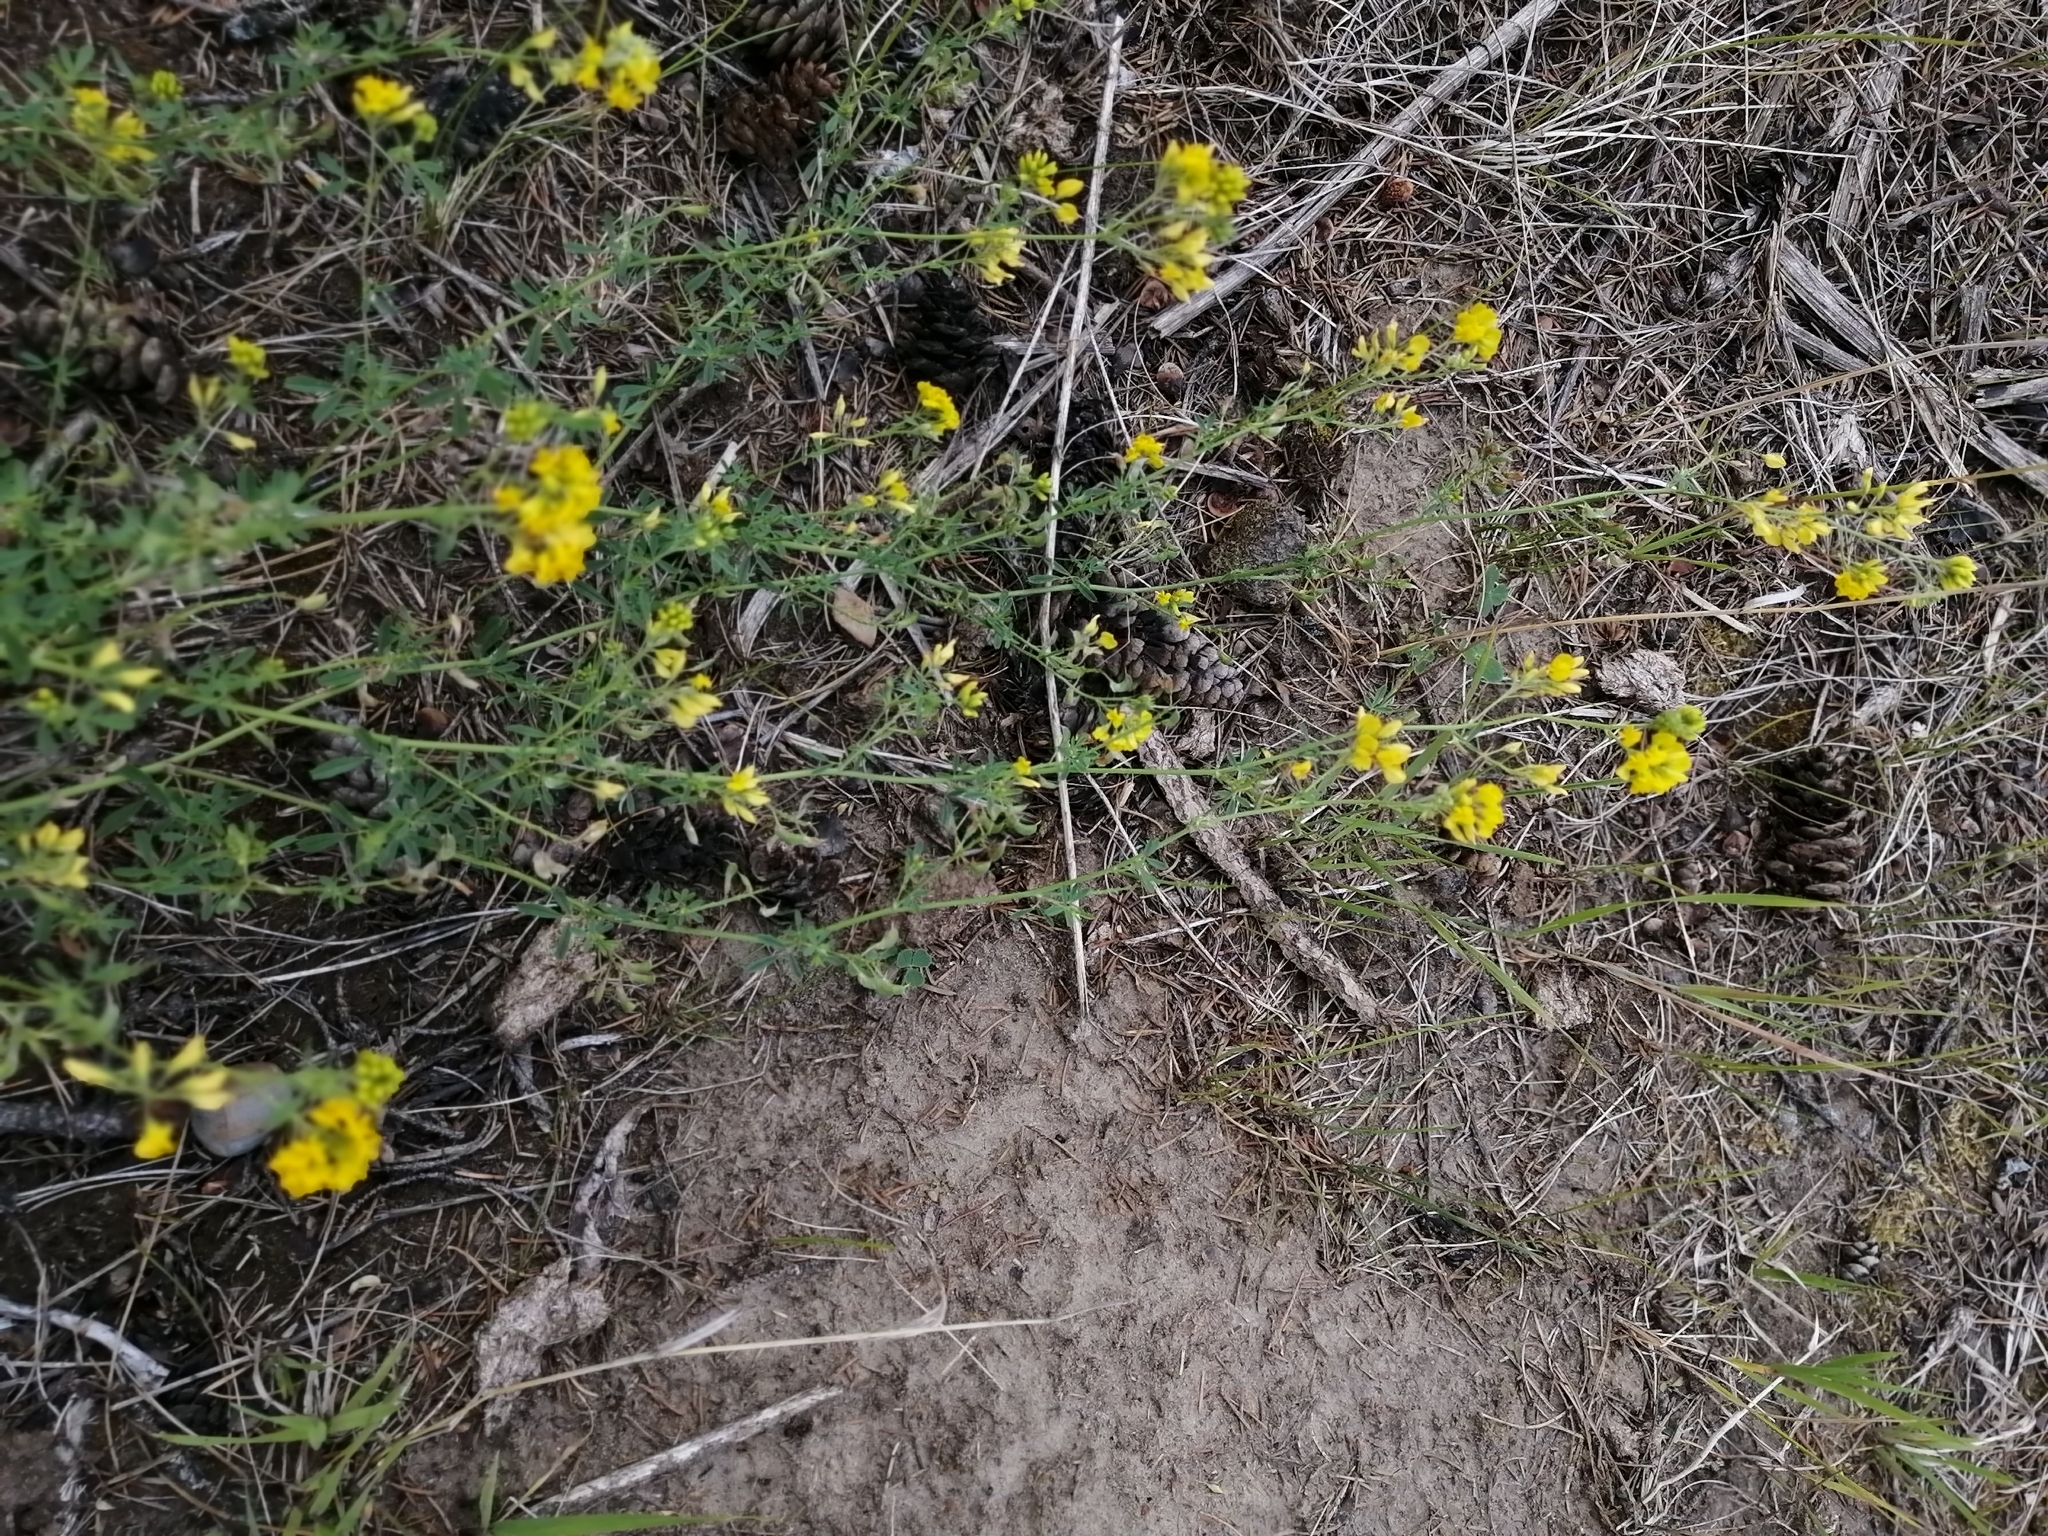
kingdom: Plantae
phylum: Tracheophyta
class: Magnoliopsida
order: Fabales
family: Fabaceae
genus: Medicago
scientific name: Medicago falcata
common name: Sickle medick
